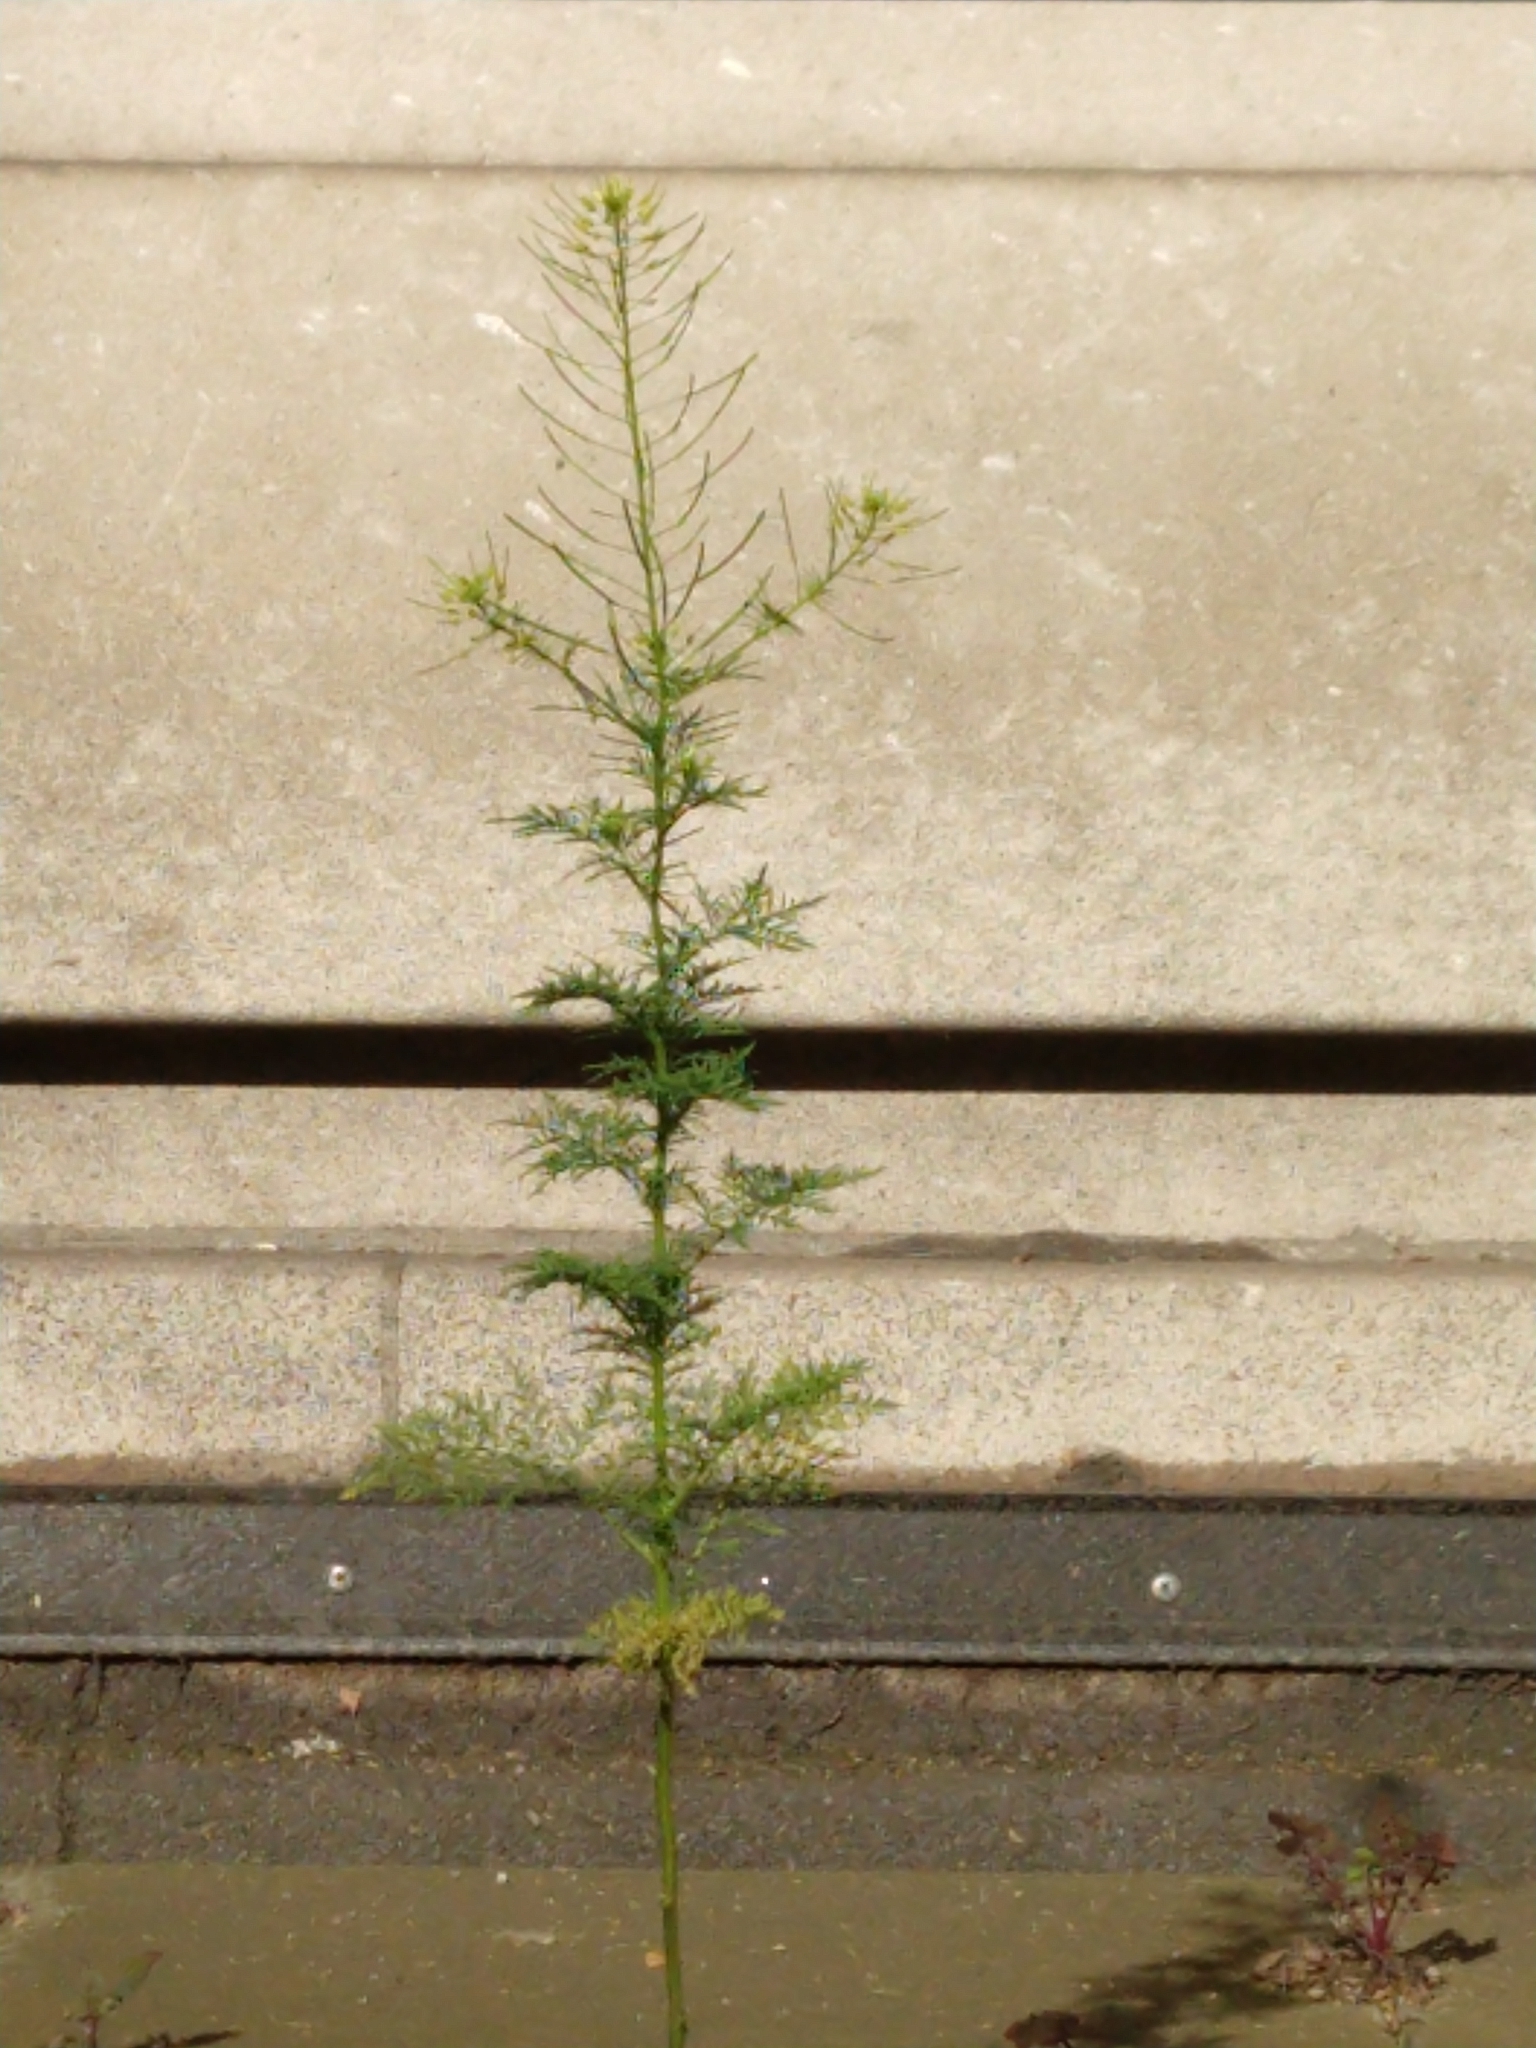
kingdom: Plantae
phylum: Tracheophyta
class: Magnoliopsida
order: Brassicales
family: Brassicaceae
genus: Descurainia
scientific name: Descurainia sophia
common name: Flixweed
